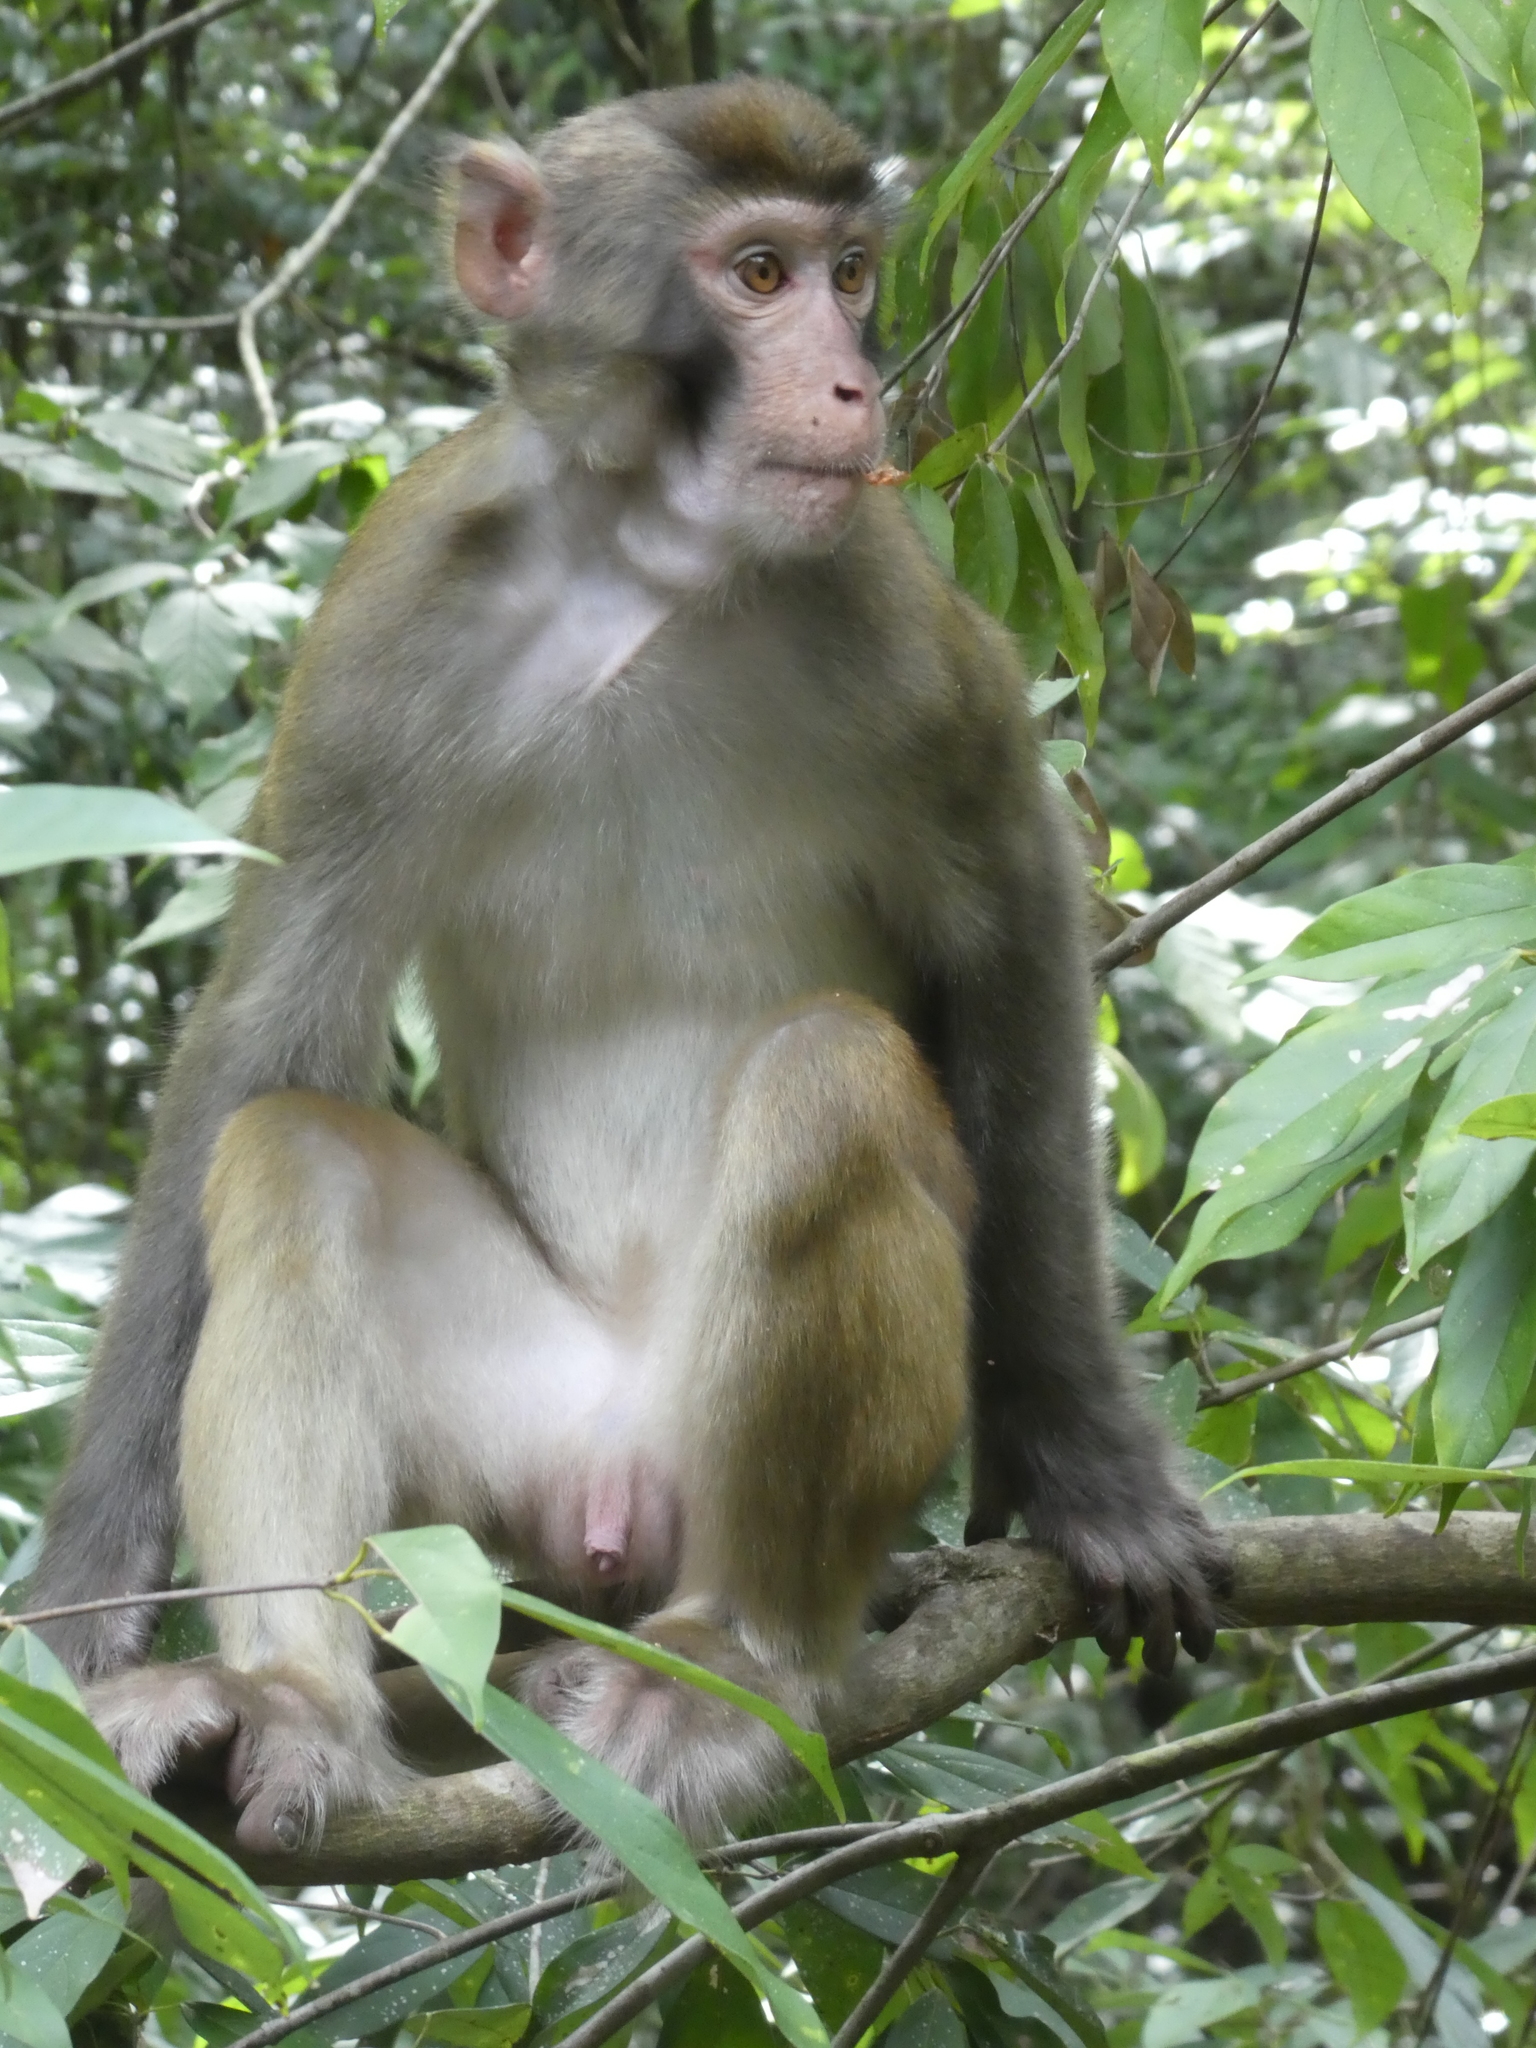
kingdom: Animalia
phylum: Chordata
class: Mammalia
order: Primates
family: Cercopithecidae
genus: Macaca
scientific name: Macaca mulatta
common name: Rhesus monkey
